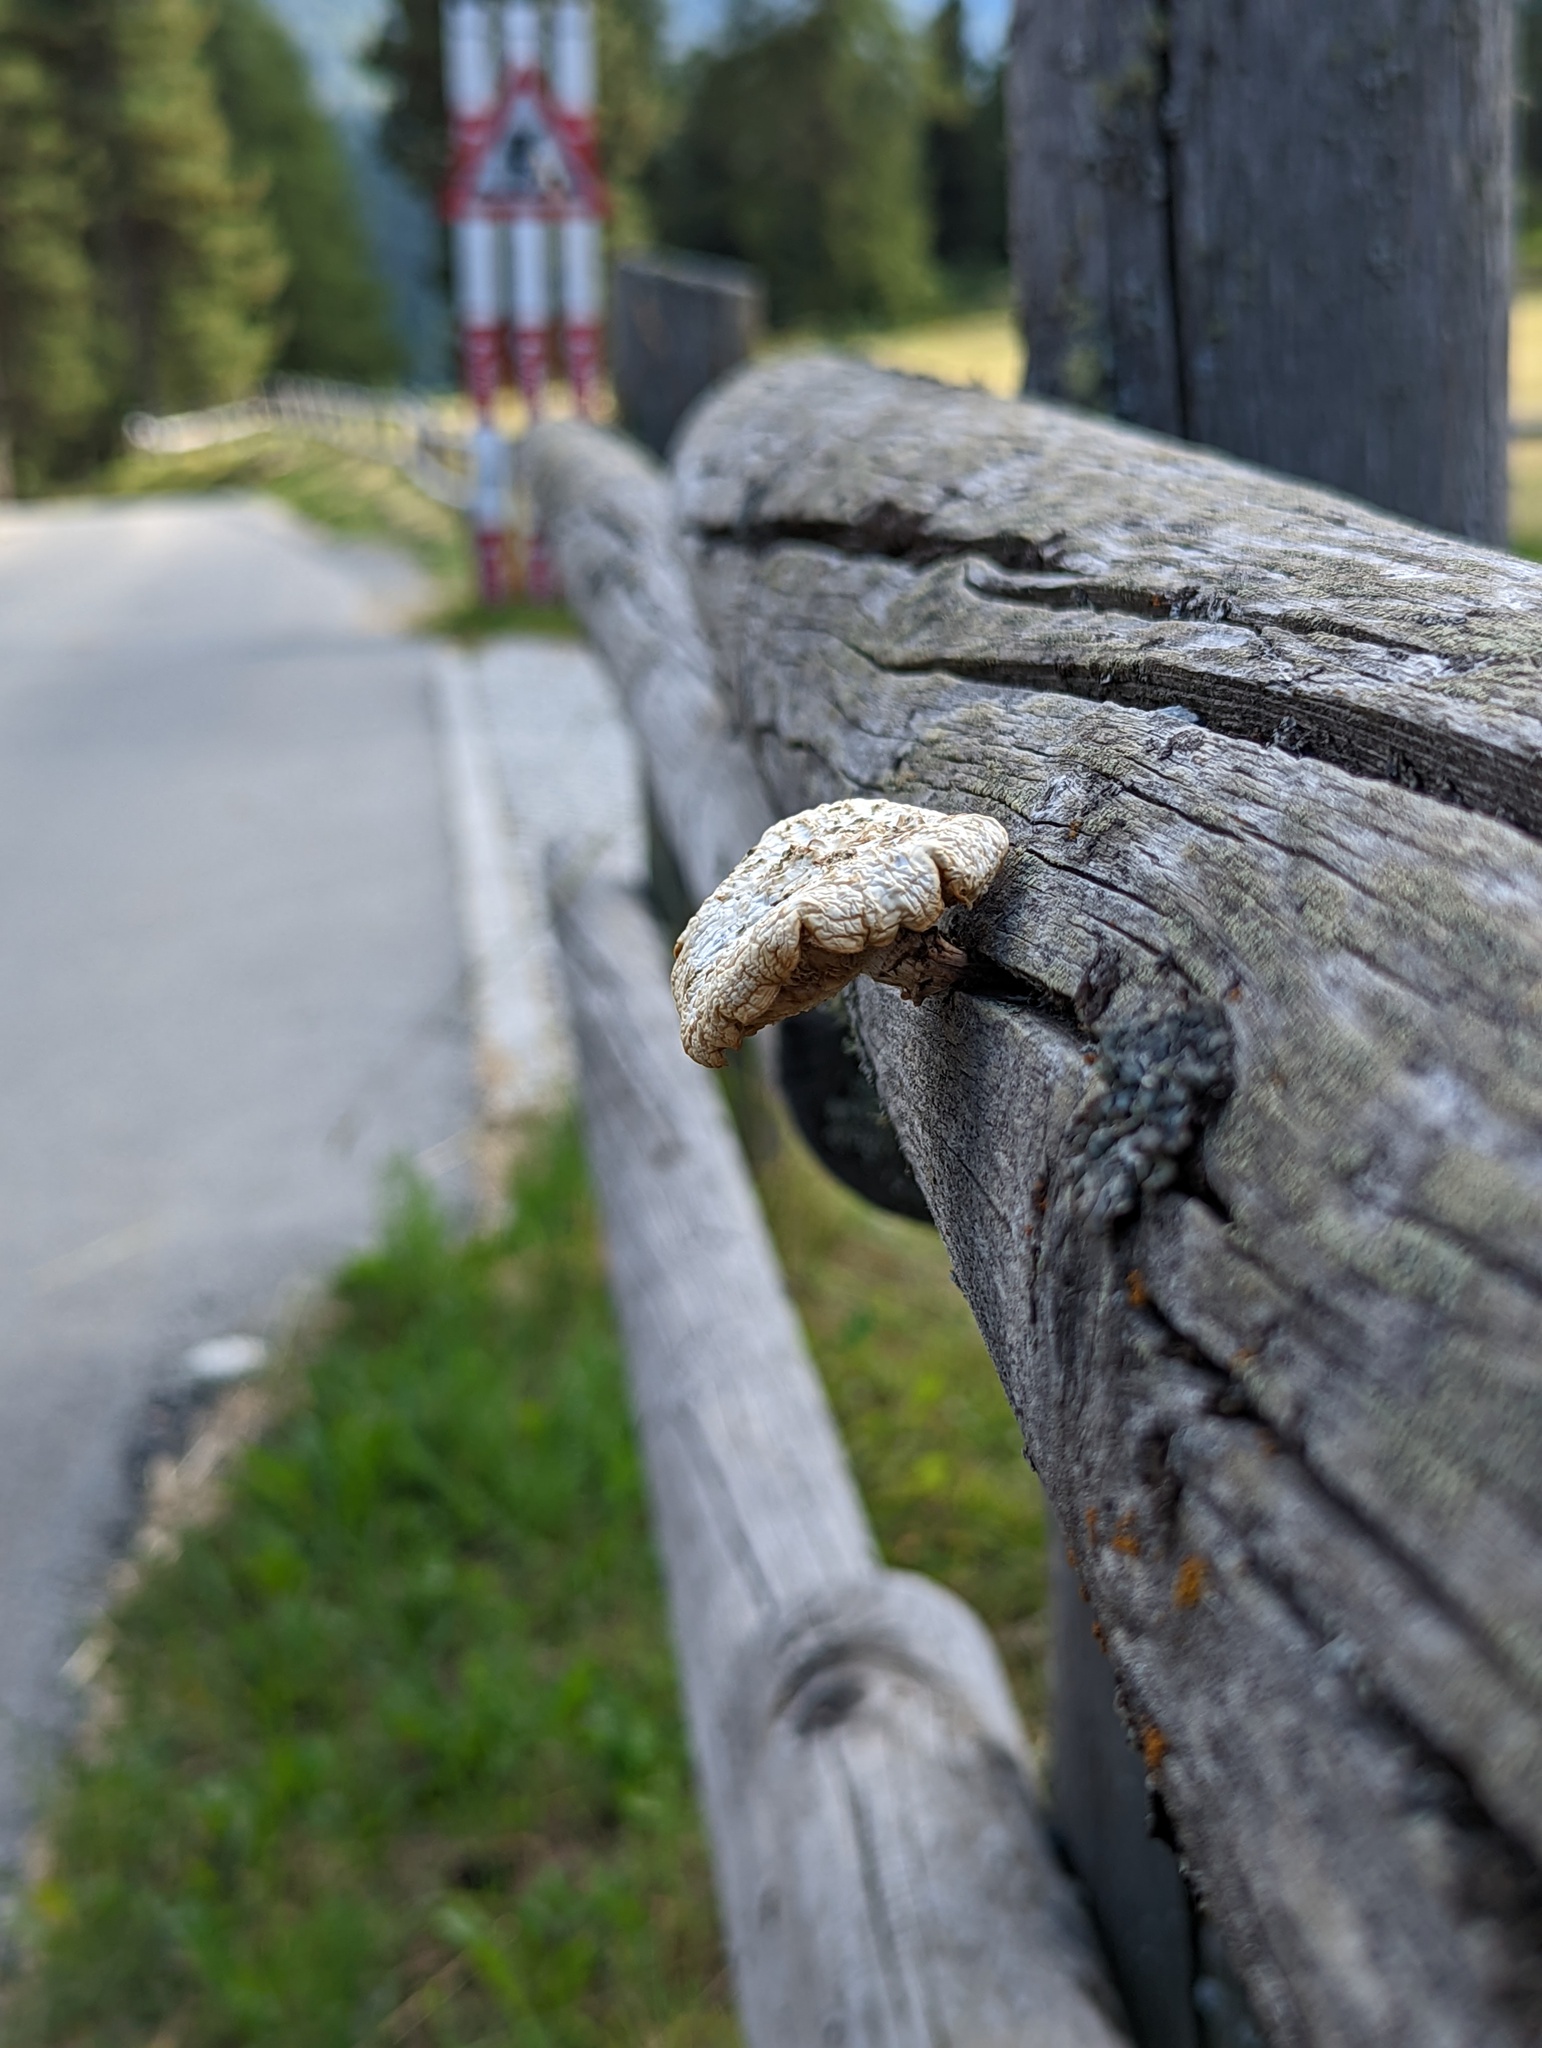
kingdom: Fungi
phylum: Basidiomycota
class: Agaricomycetes
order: Gloeophyllales
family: Gloeophyllaceae
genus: Neolentinus
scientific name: Neolentinus lepideus
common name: Scaly sawgill
